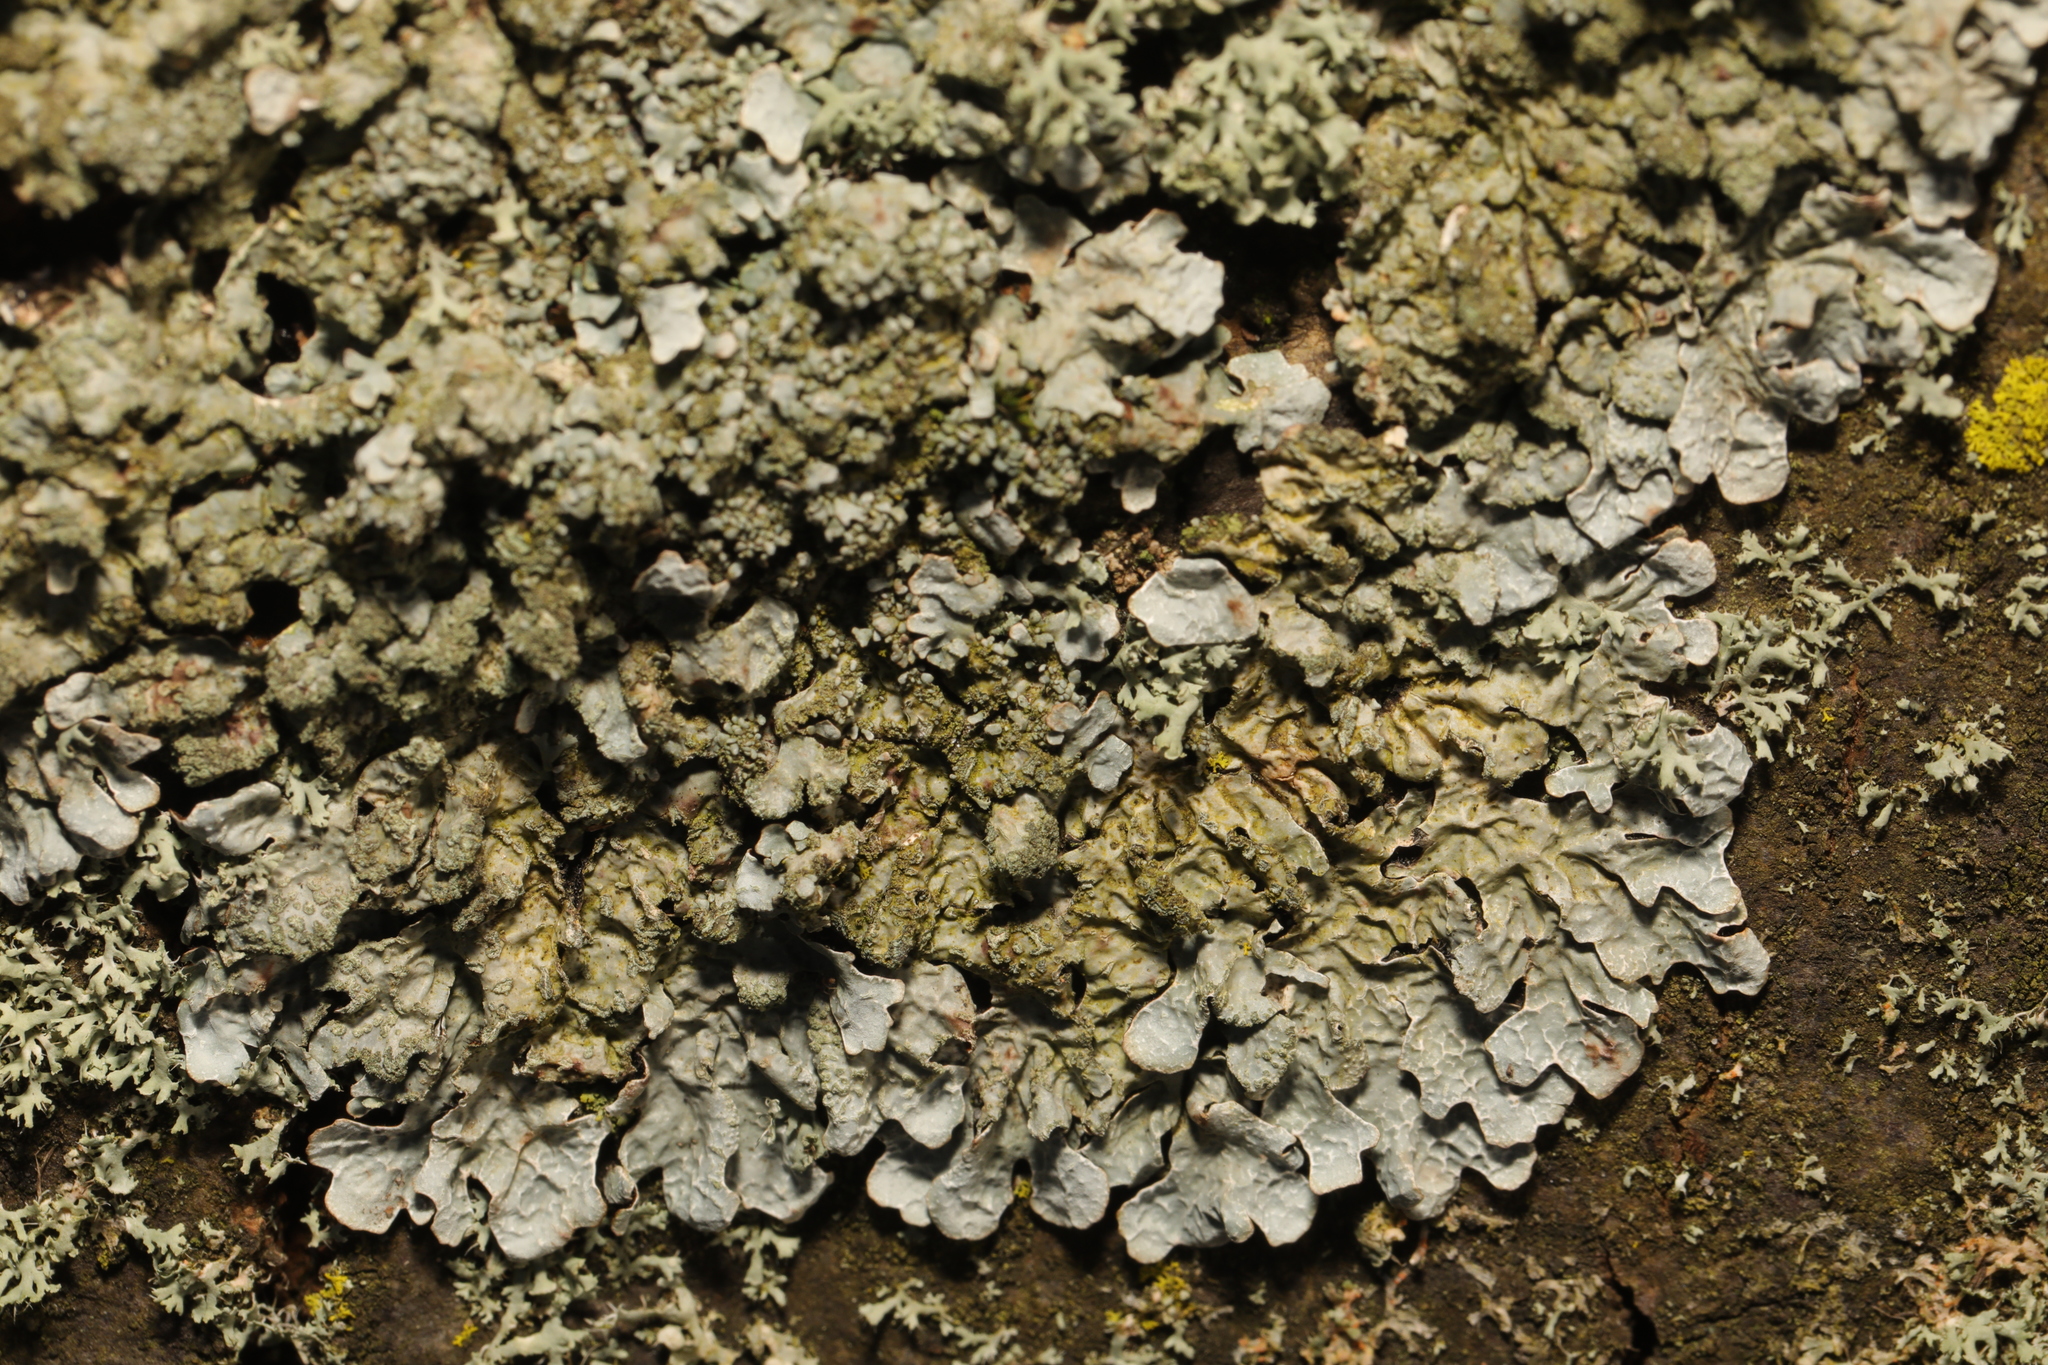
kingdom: Fungi
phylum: Ascomycota
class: Lecanoromycetes
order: Lecanorales
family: Parmeliaceae
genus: Parmelia
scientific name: Parmelia sulcata
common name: Netted shield lichen
